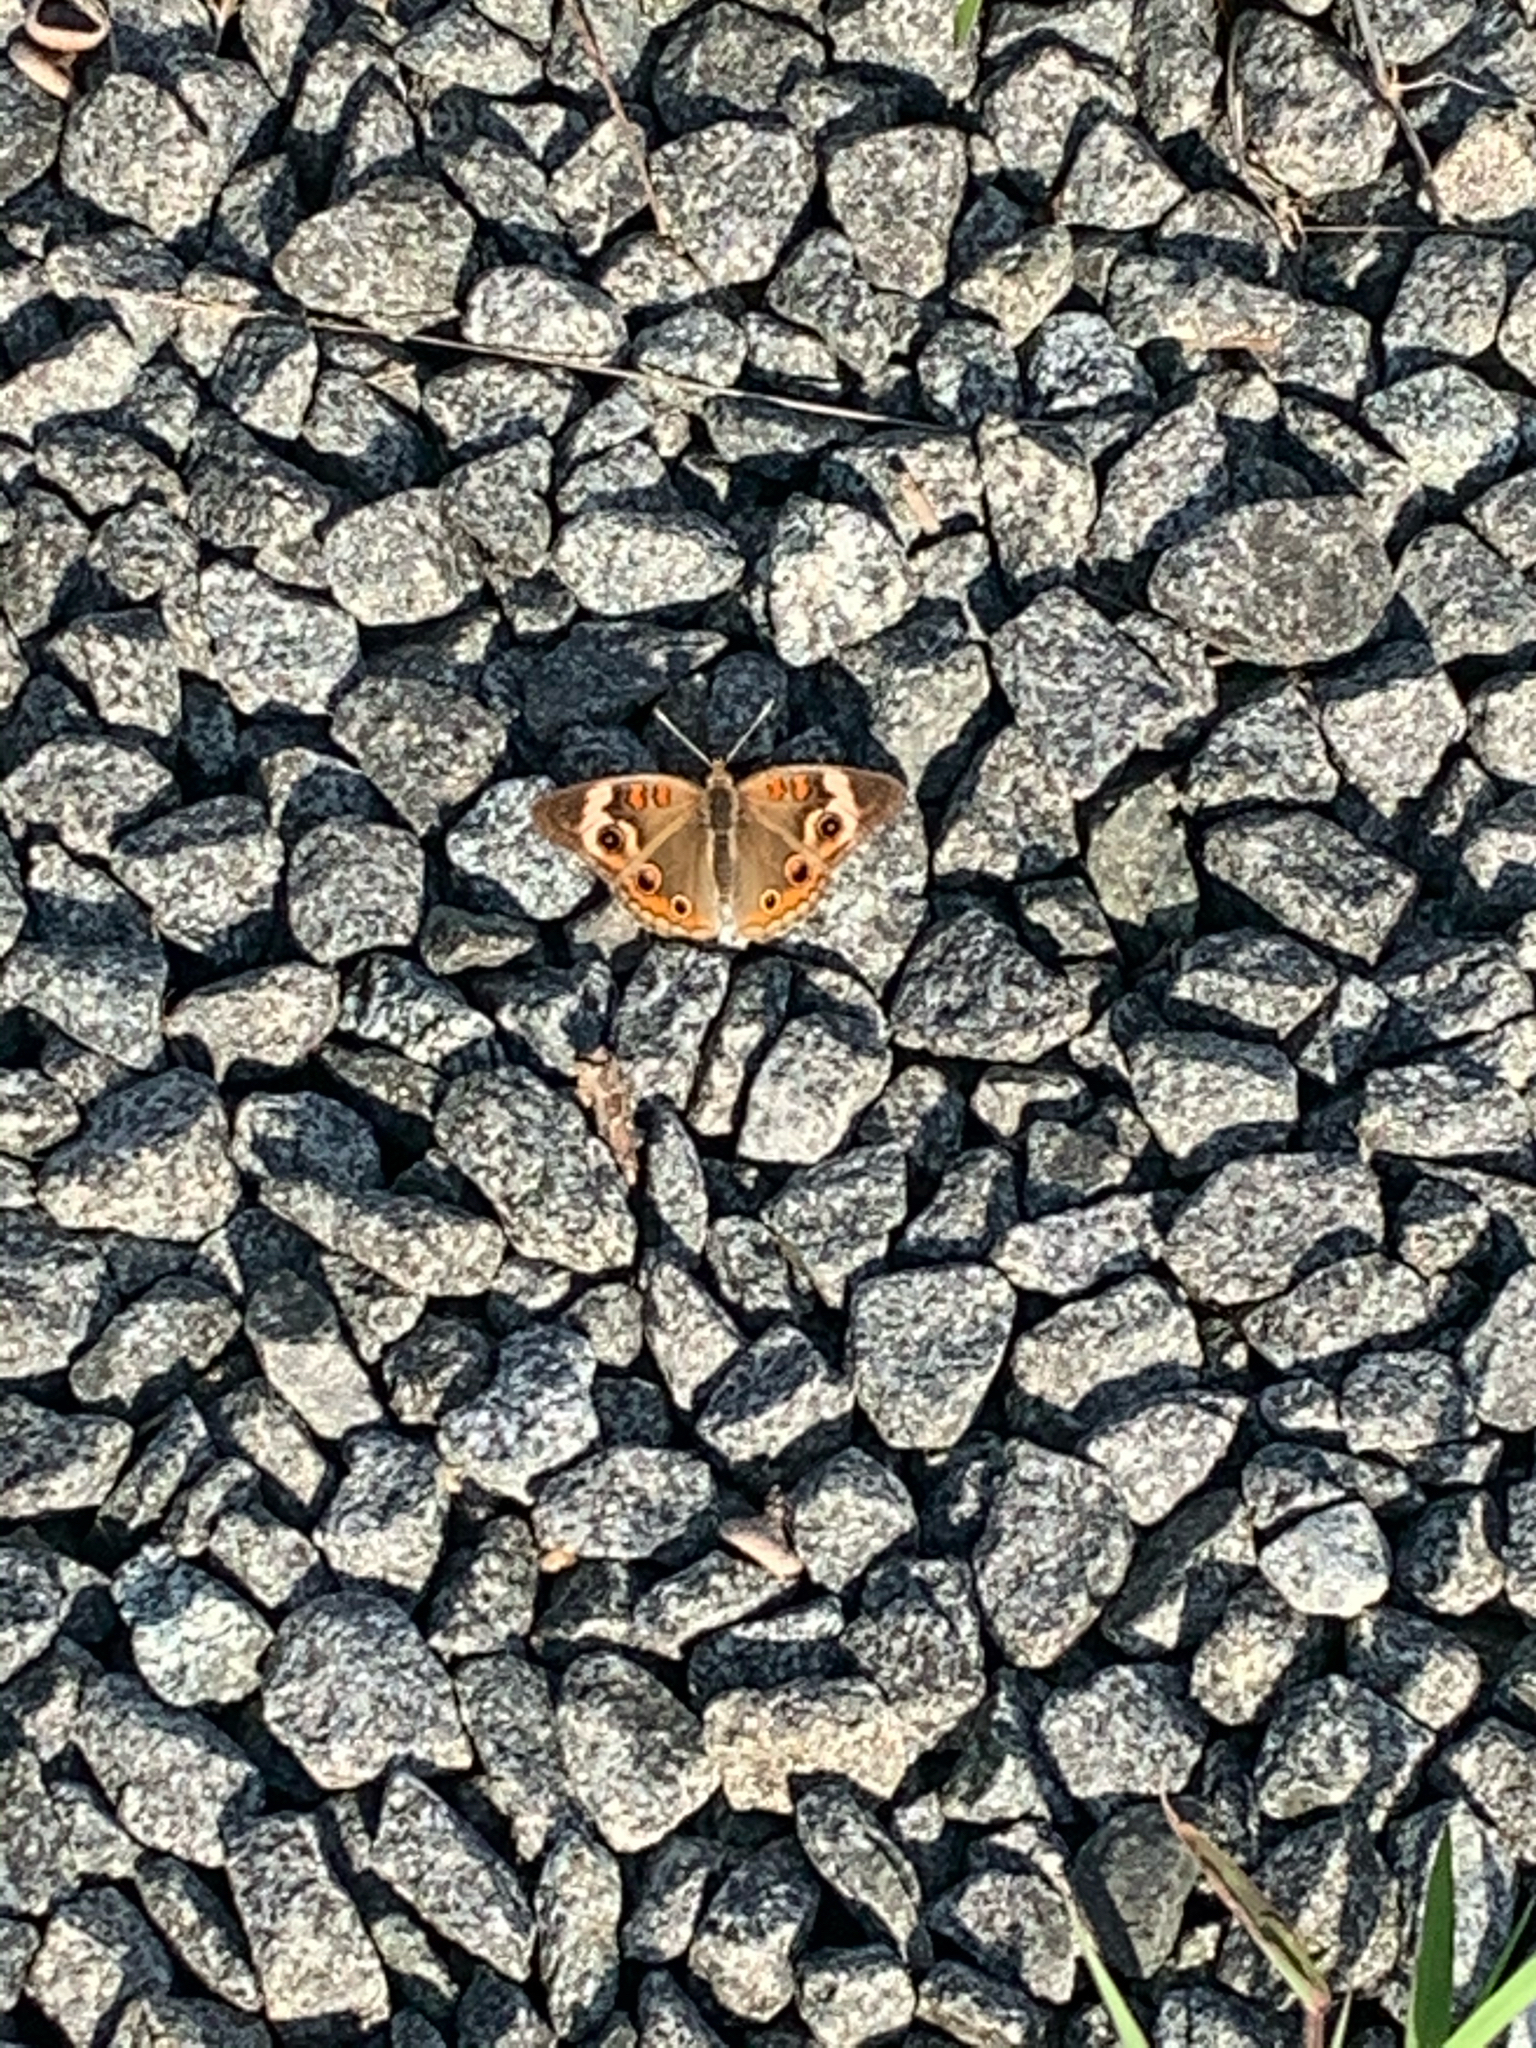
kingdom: Animalia
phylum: Arthropoda
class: Insecta
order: Lepidoptera
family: Nymphalidae
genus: Junonia
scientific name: Junonia coenia
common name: Common buckeye
